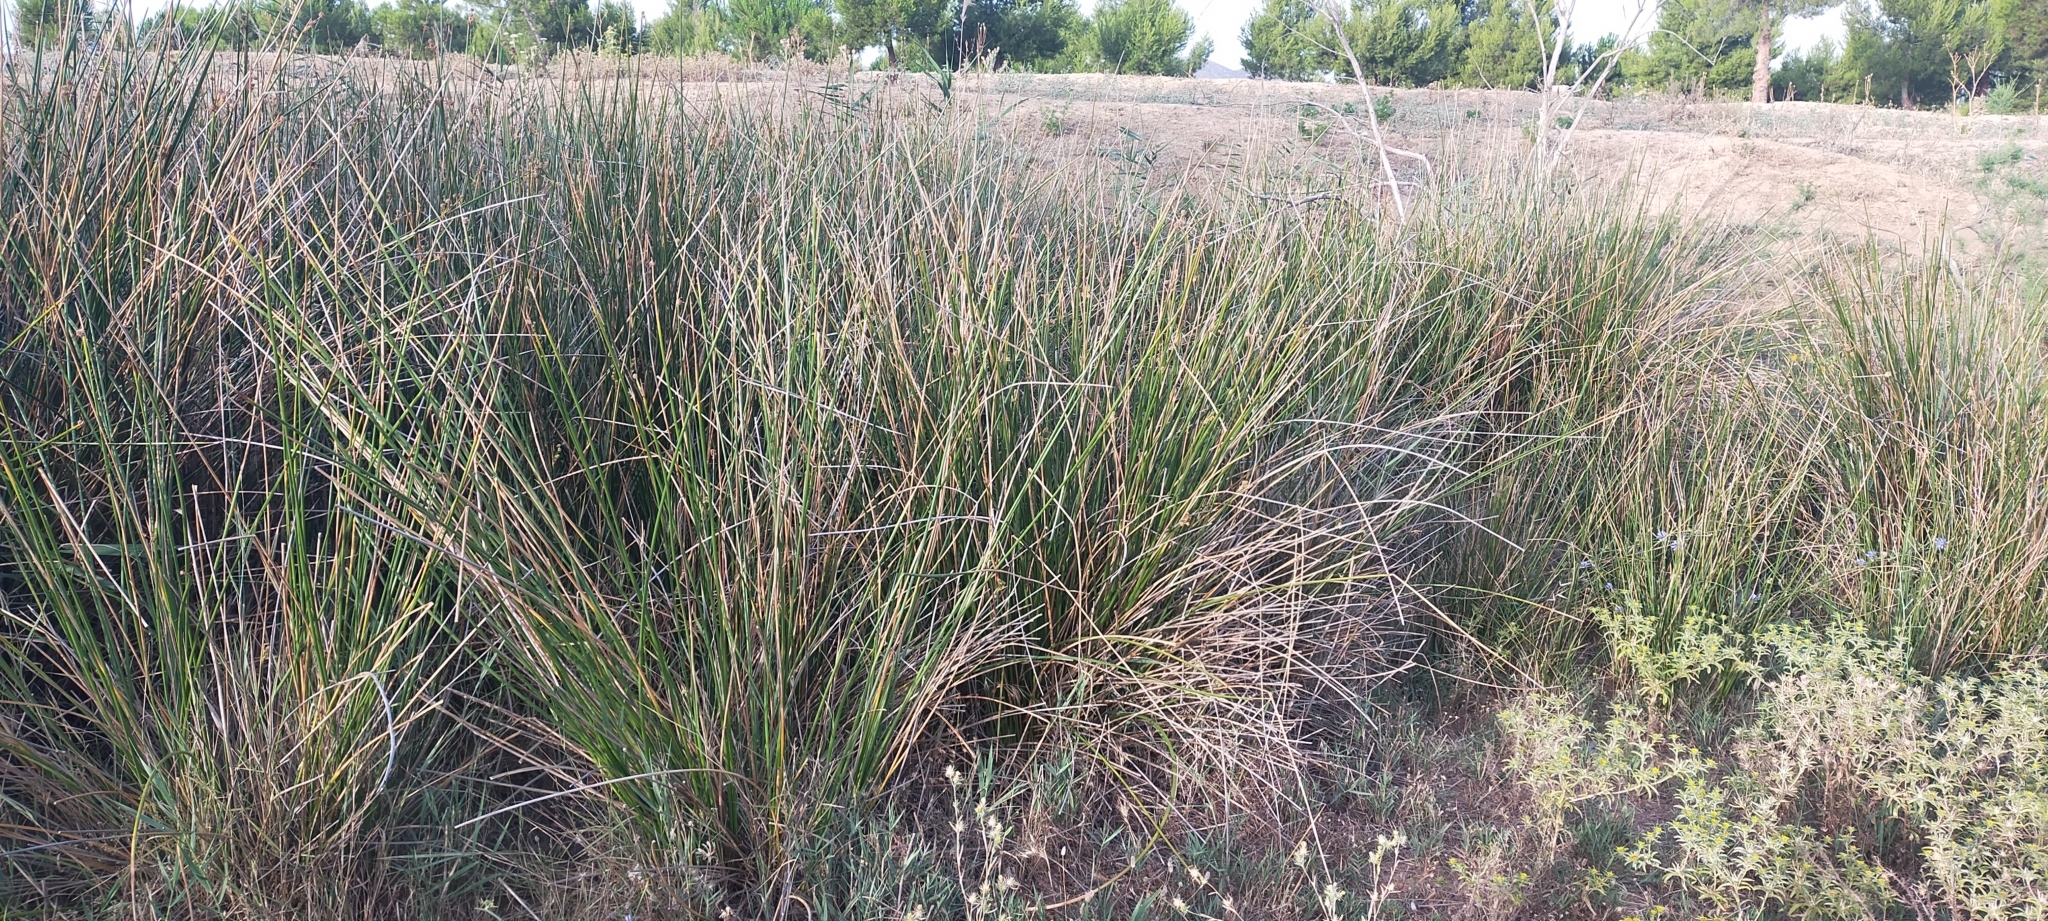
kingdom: Plantae
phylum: Tracheophyta
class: Liliopsida
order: Poales
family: Cyperaceae
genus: Scirpoides
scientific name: Scirpoides holoschoenus
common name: Round-headed club-rush
